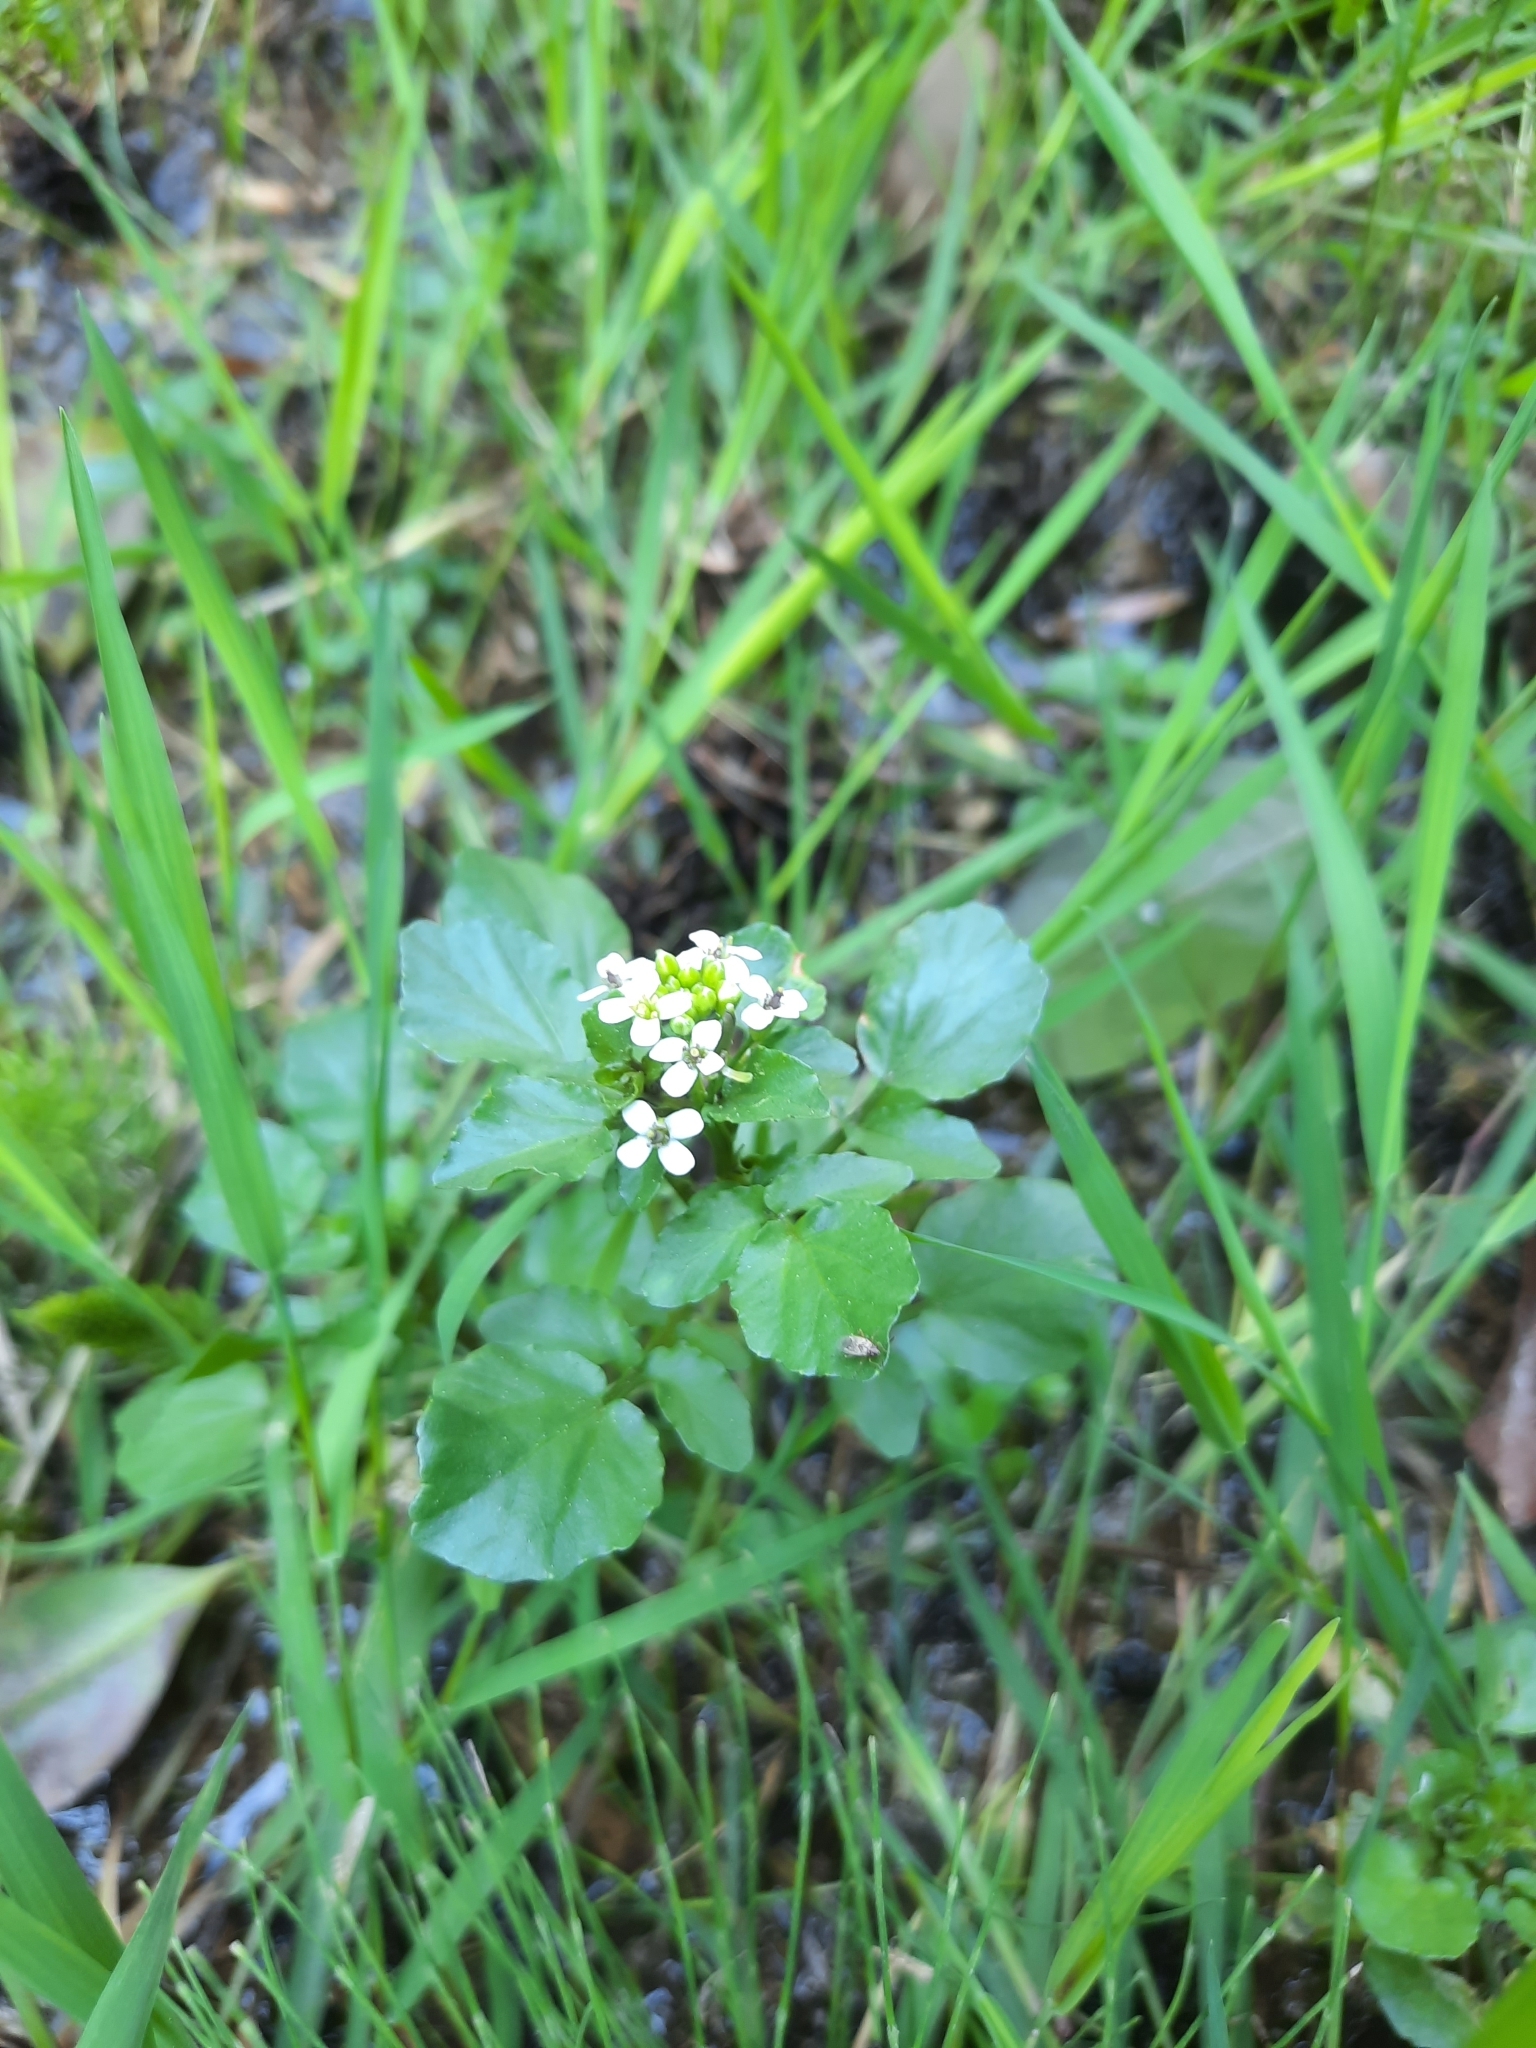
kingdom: Plantae
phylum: Tracheophyta
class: Magnoliopsida
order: Brassicales
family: Brassicaceae
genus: Nasturtium
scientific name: Nasturtium officinale
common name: Watercress
